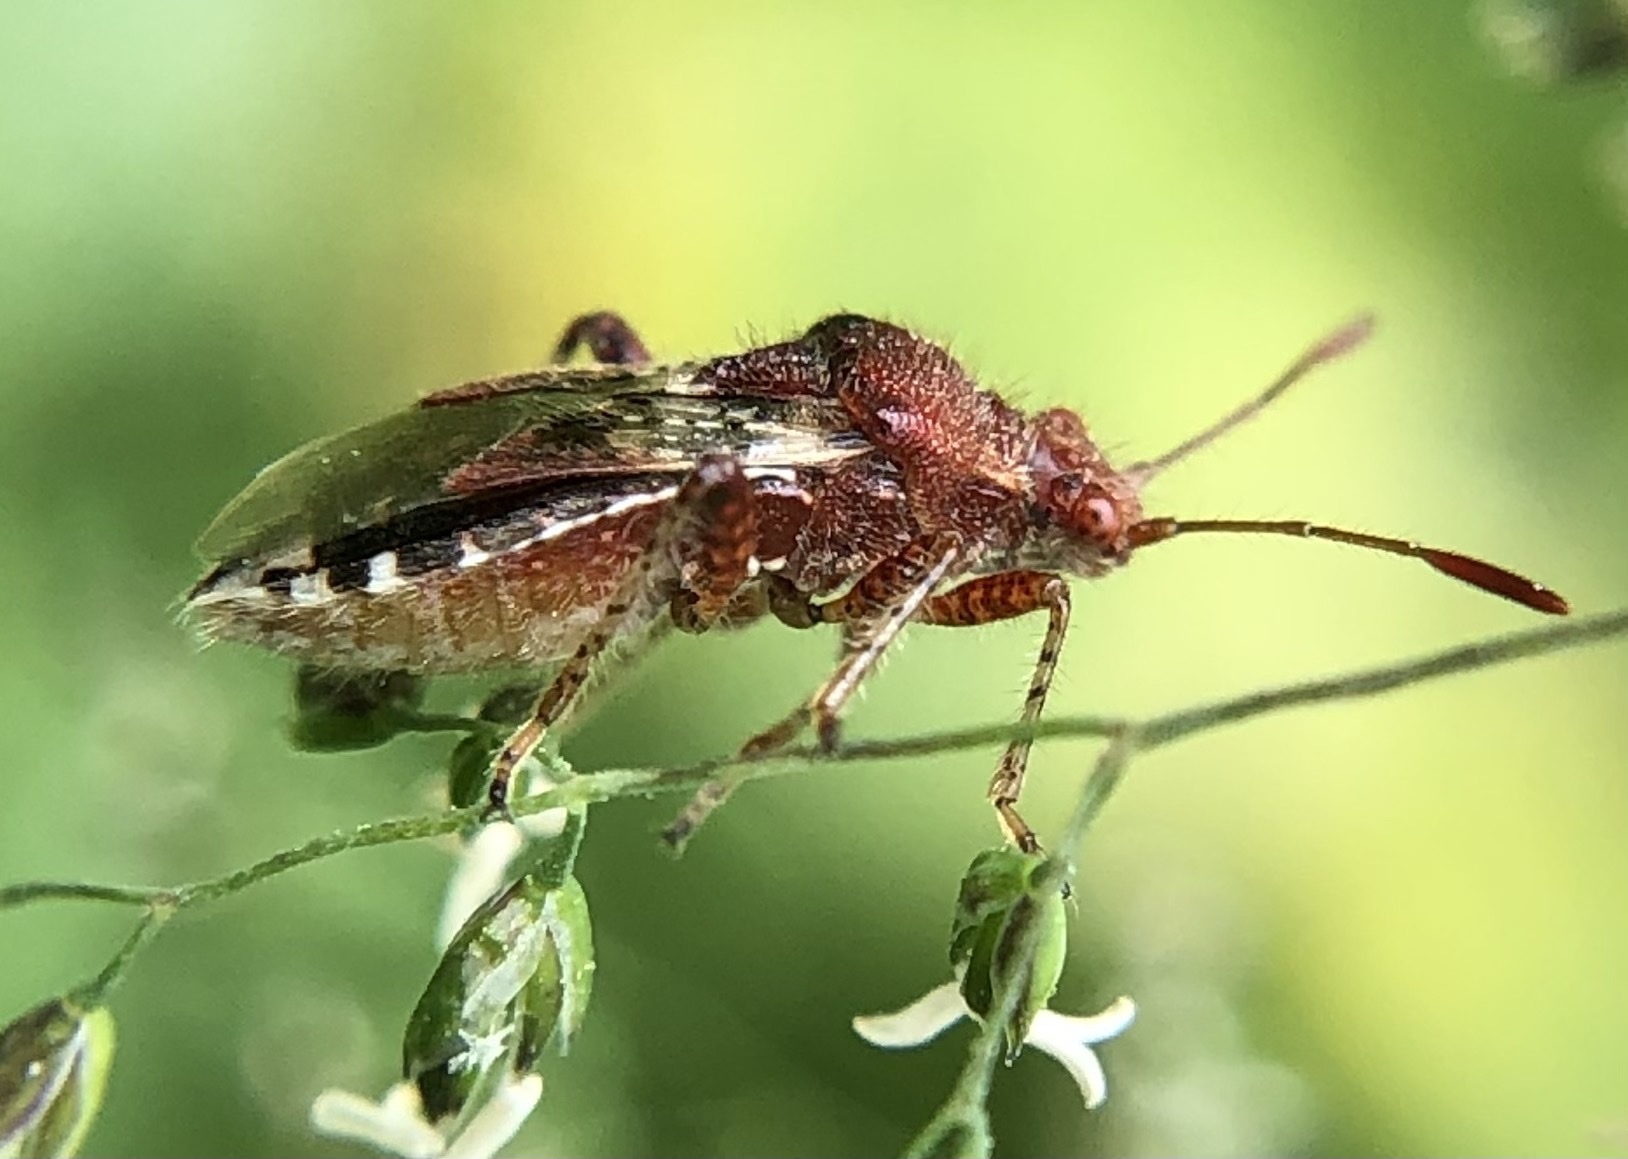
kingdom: Animalia
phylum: Arthropoda
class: Insecta
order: Hemiptera
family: Rhopalidae
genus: Rhopalus
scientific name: Rhopalus subrufus
